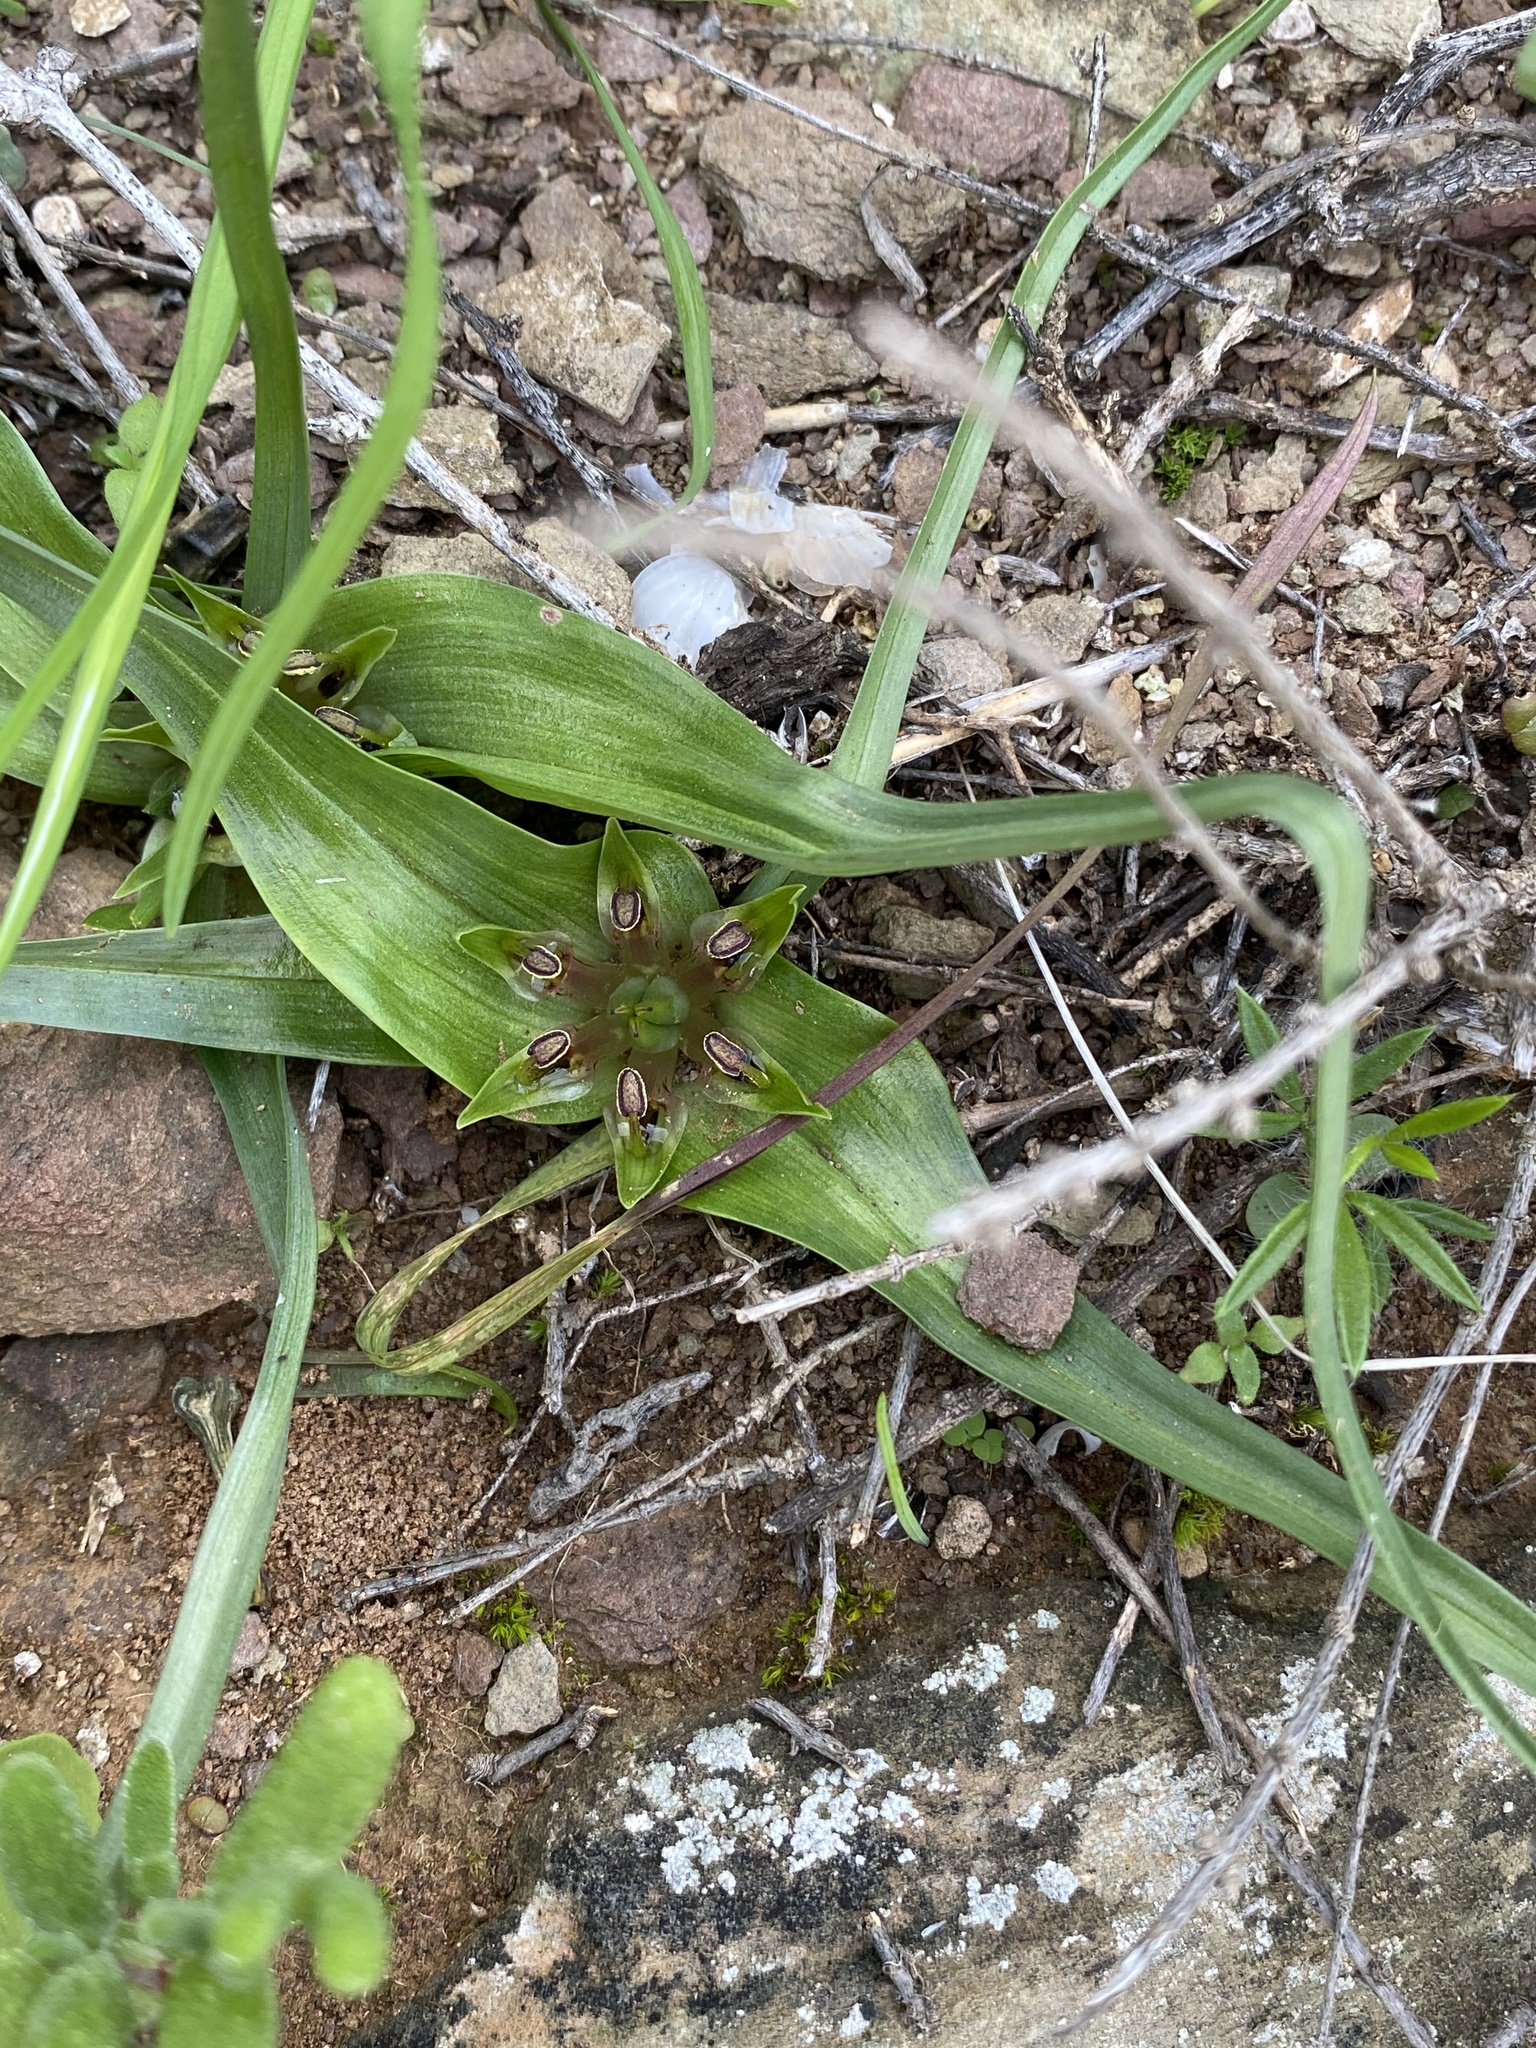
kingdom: Plantae
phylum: Tracheophyta
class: Liliopsida
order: Liliales
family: Colchicaceae
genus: Colchicum
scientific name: Colchicum longipes
